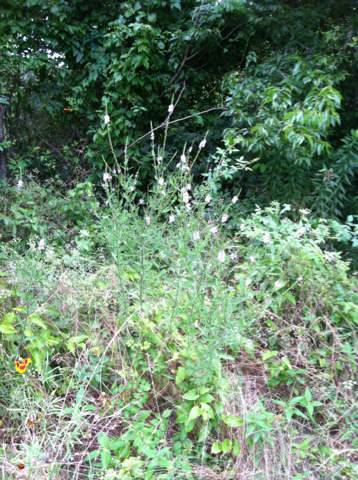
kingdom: Plantae
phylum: Tracheophyta
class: Magnoliopsida
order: Lamiales
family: Verbenaceae
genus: Verbena
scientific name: Verbena halei
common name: Texas vervain
